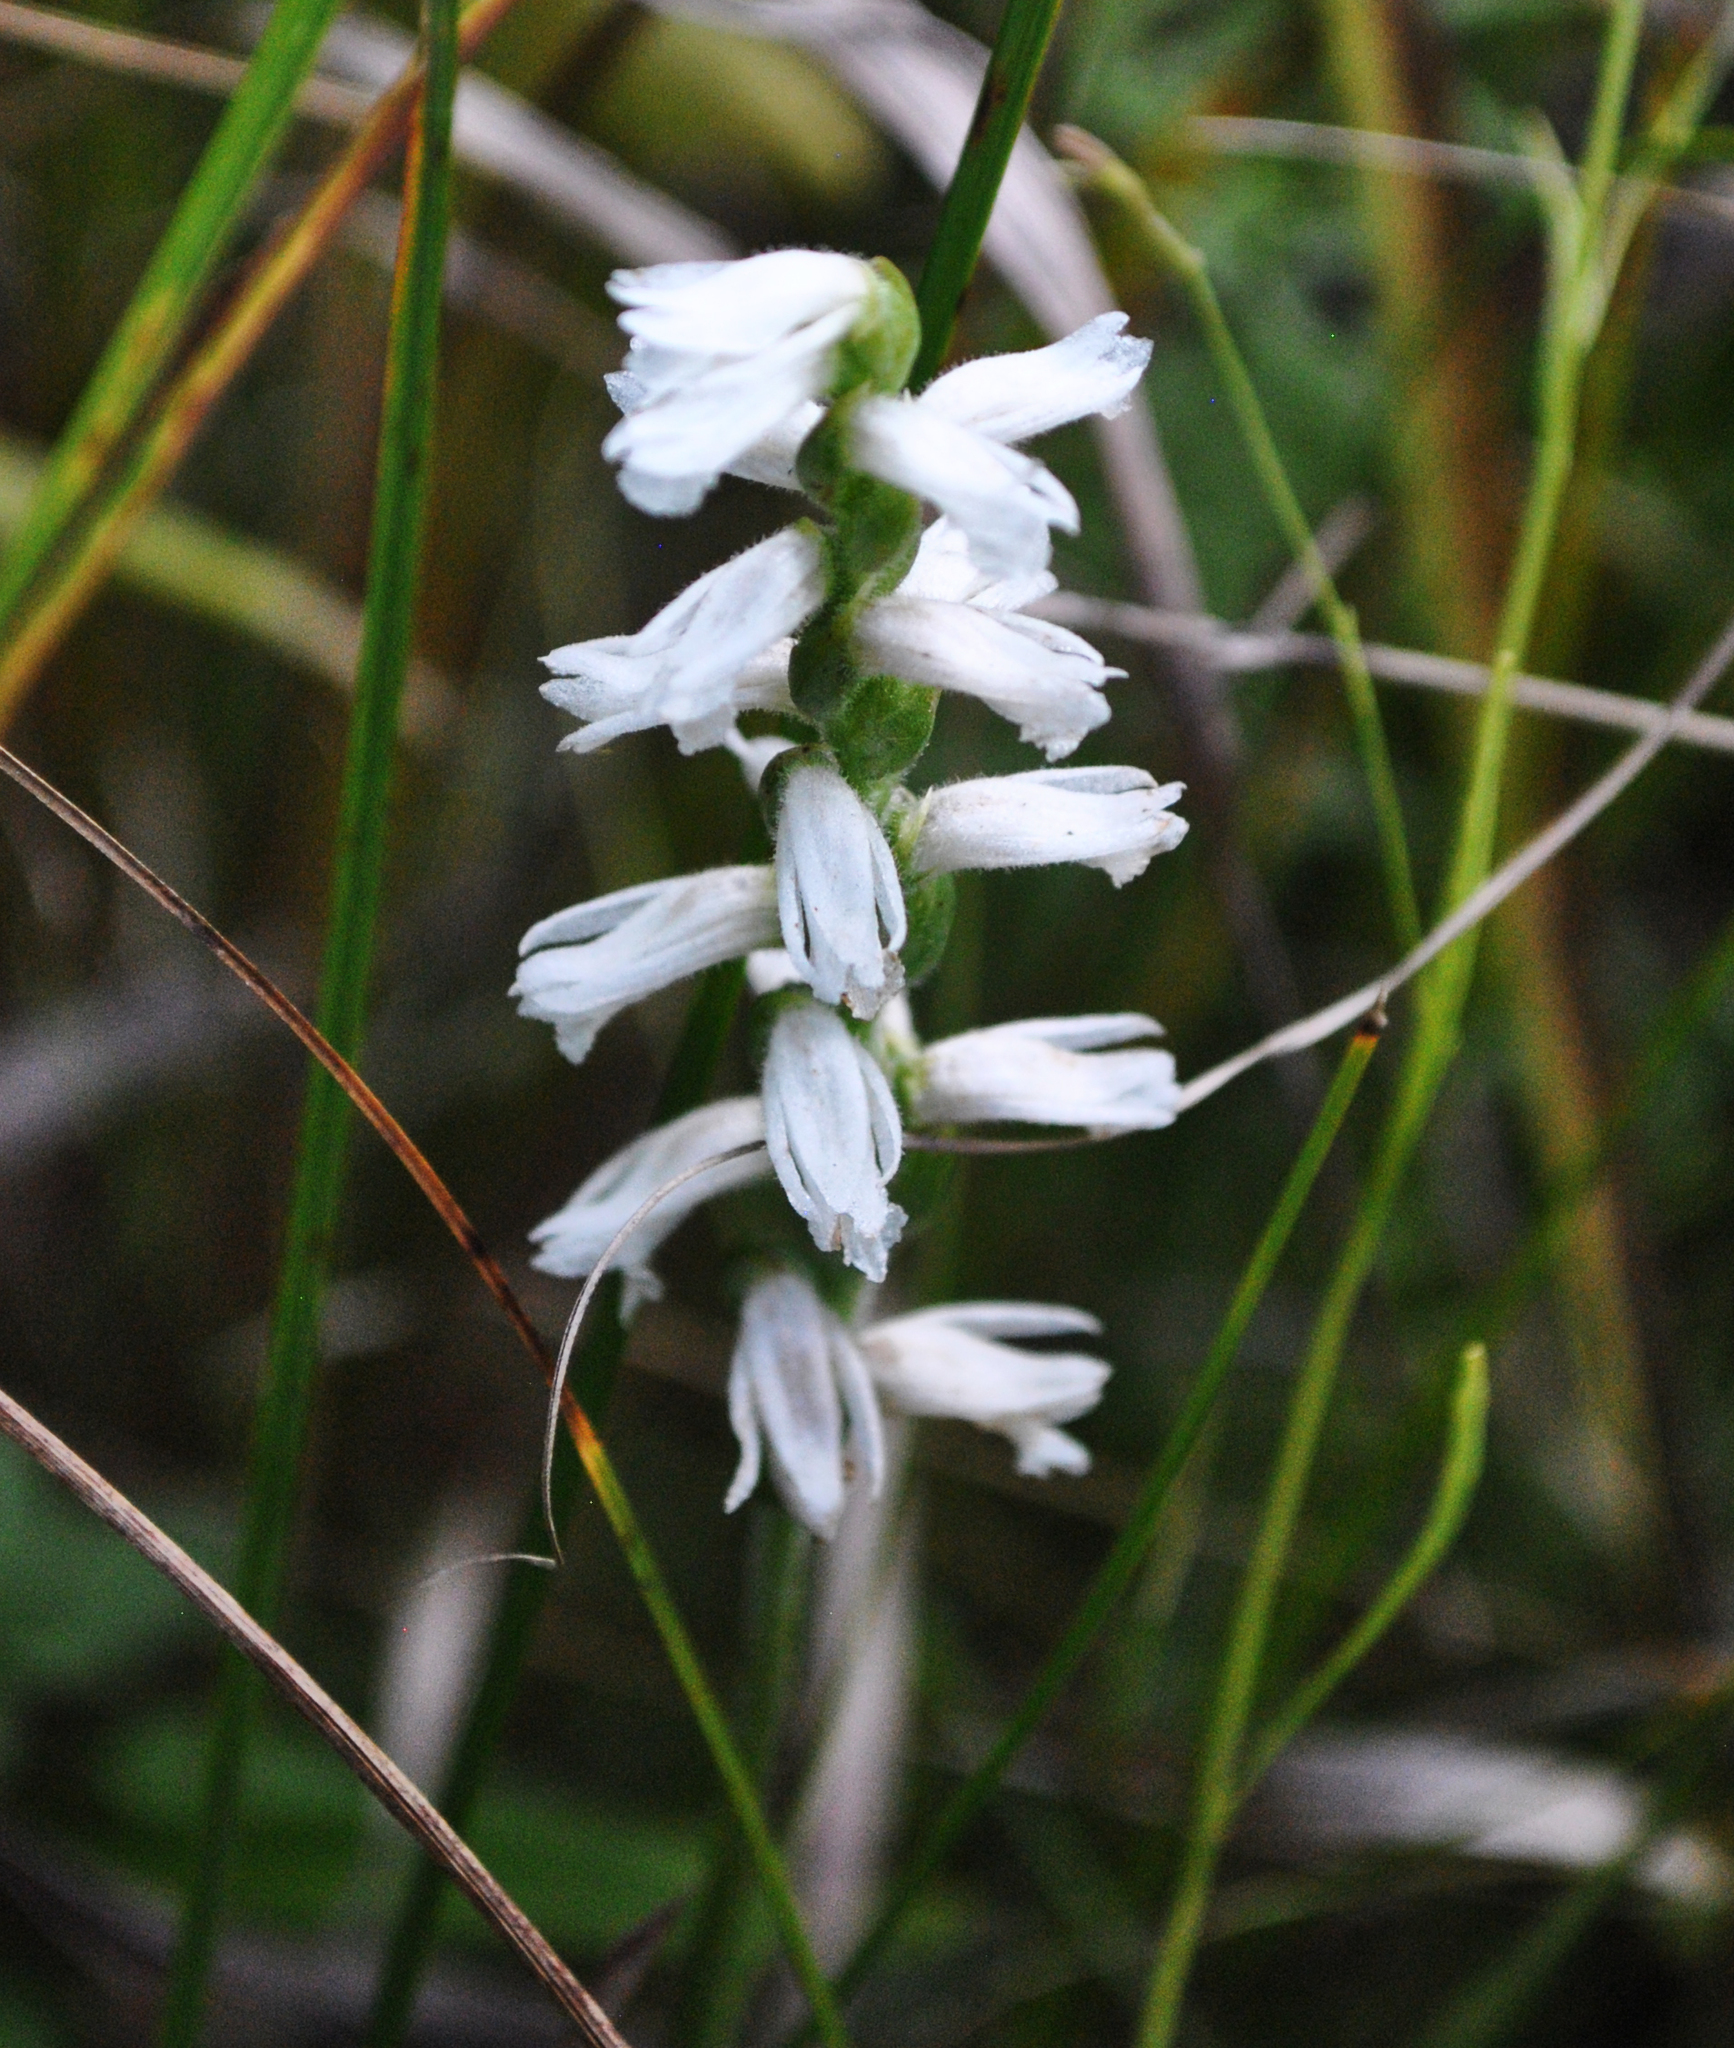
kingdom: Plantae
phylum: Tracheophyta
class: Liliopsida
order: Asparagales
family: Orchidaceae
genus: Spiranthes
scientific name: Spiranthes incurva
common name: Sphinx ladies'-tresses
